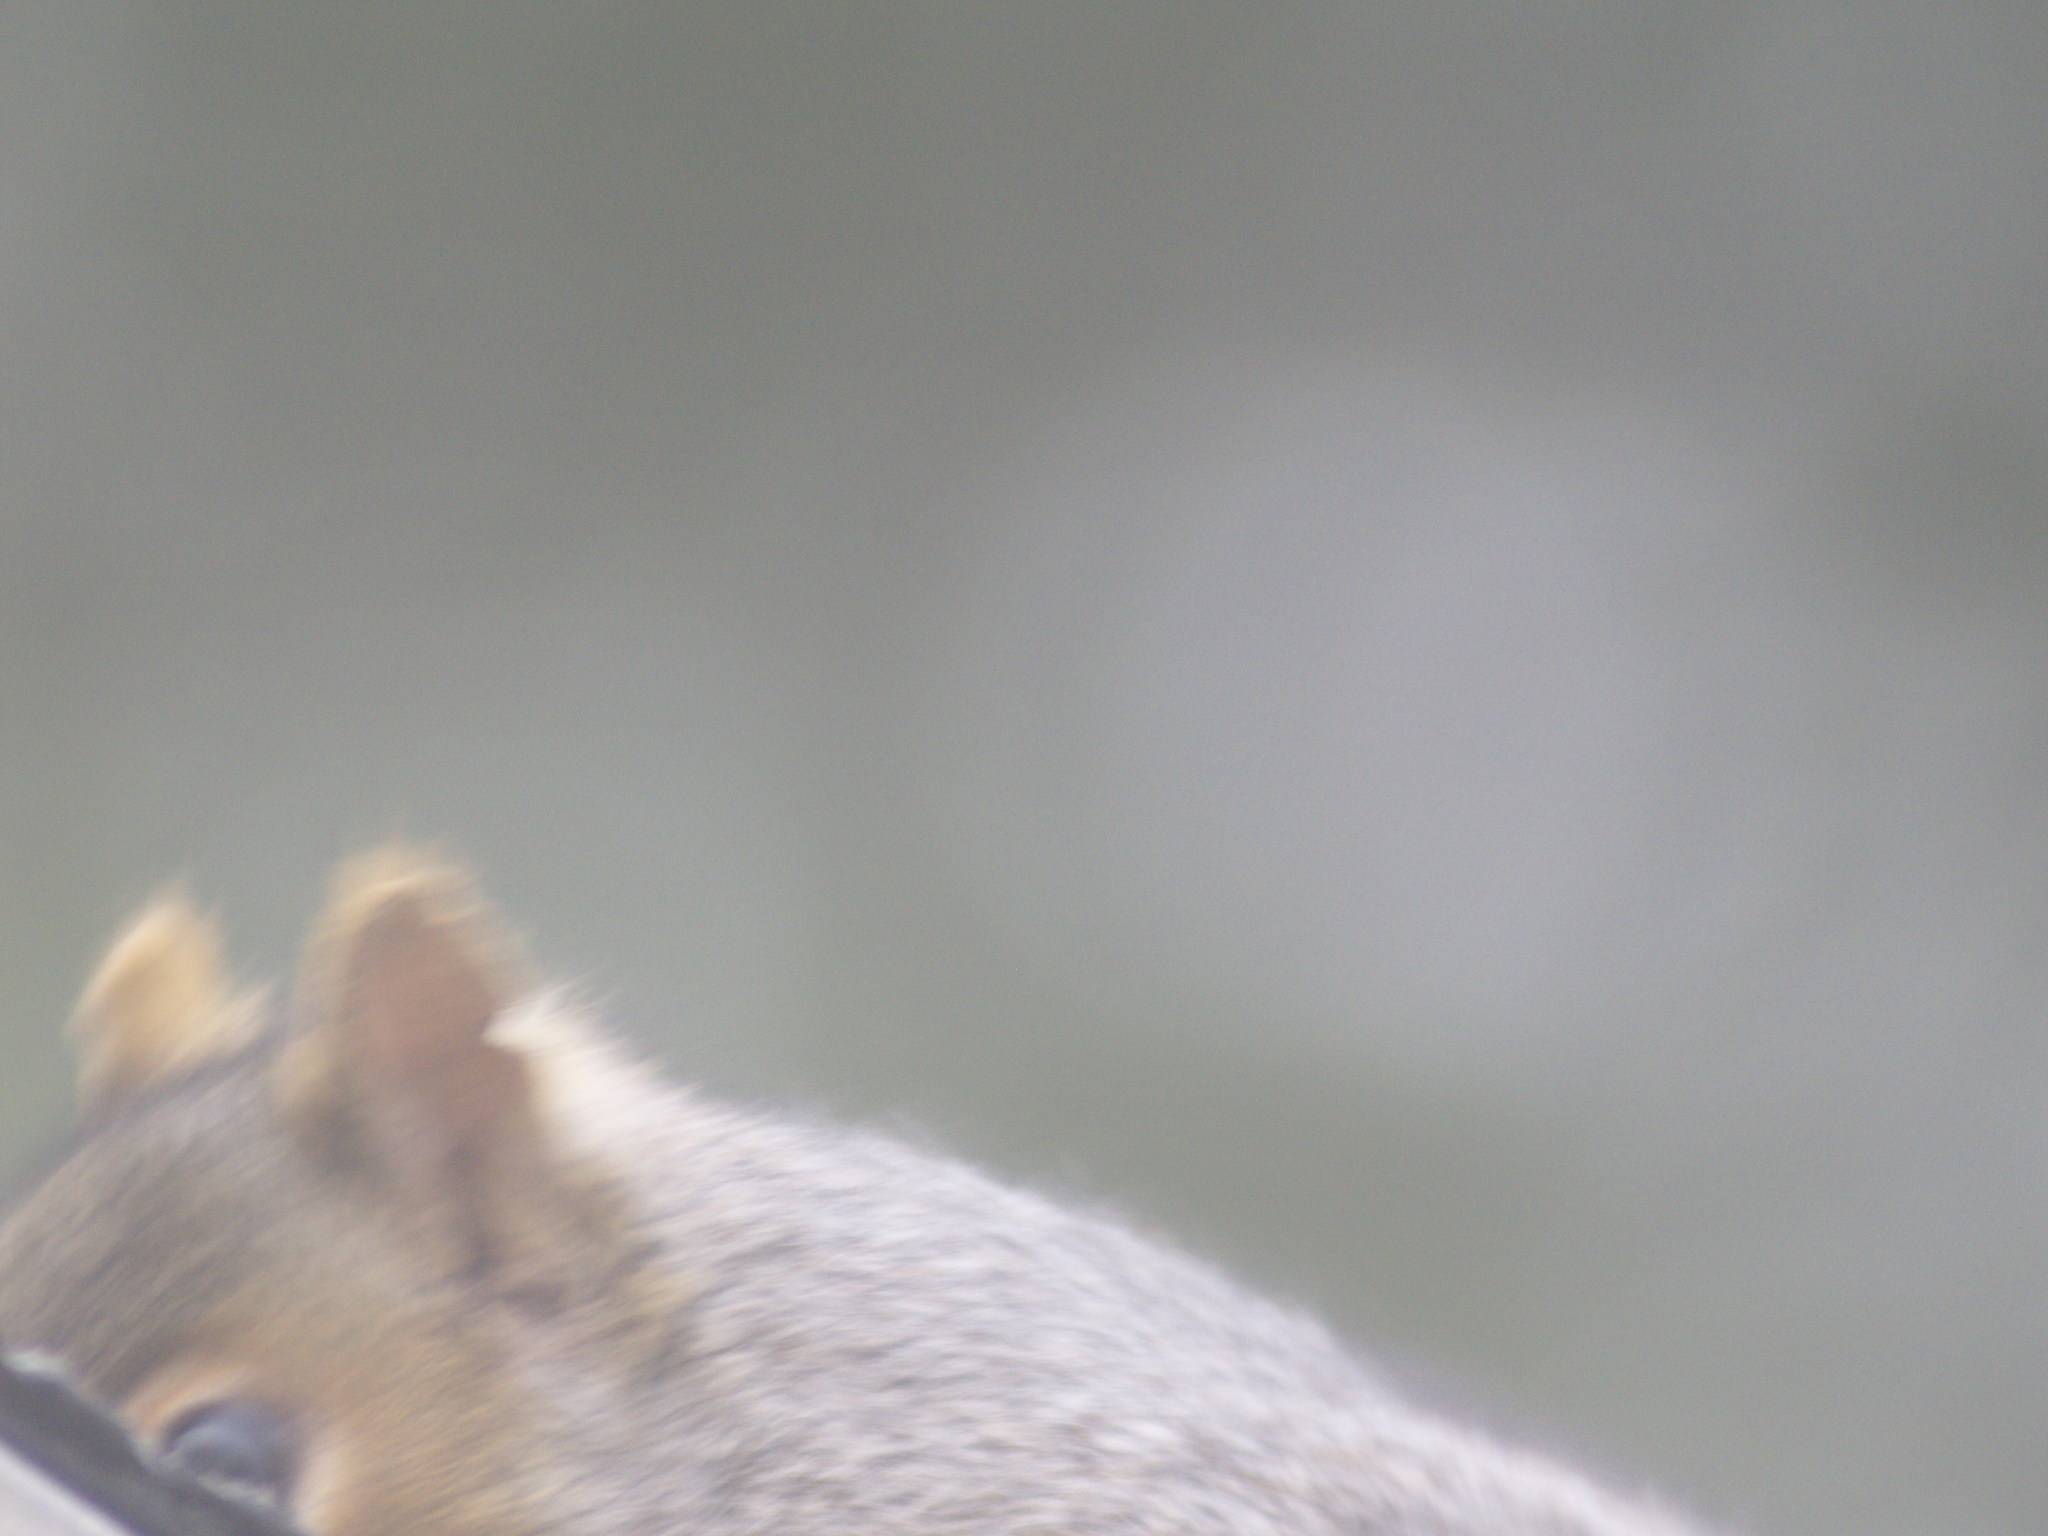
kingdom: Animalia
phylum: Chordata
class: Mammalia
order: Rodentia
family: Sciuridae
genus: Sciurus
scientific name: Sciurus carolinensis
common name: Eastern gray squirrel
